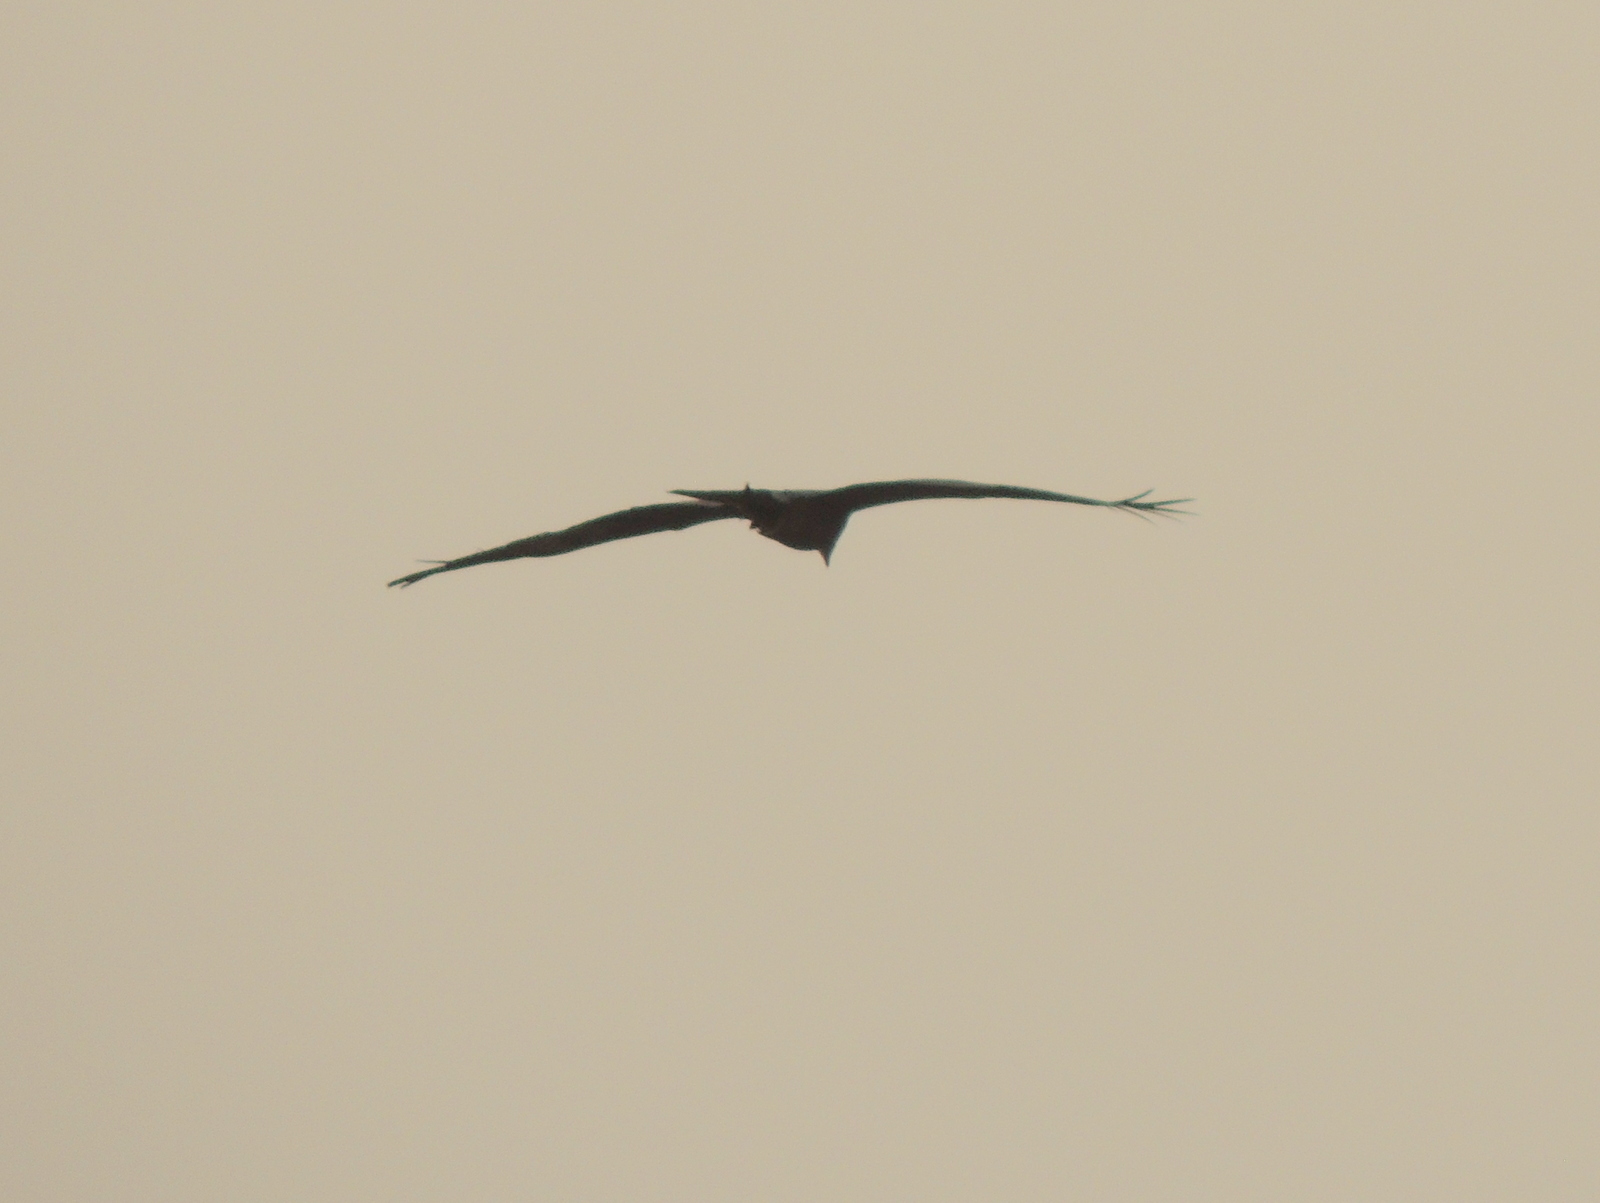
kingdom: Animalia
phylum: Chordata
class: Aves
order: Accipitriformes
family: Accipitridae
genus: Milvus
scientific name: Milvus migrans
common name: Black kite
